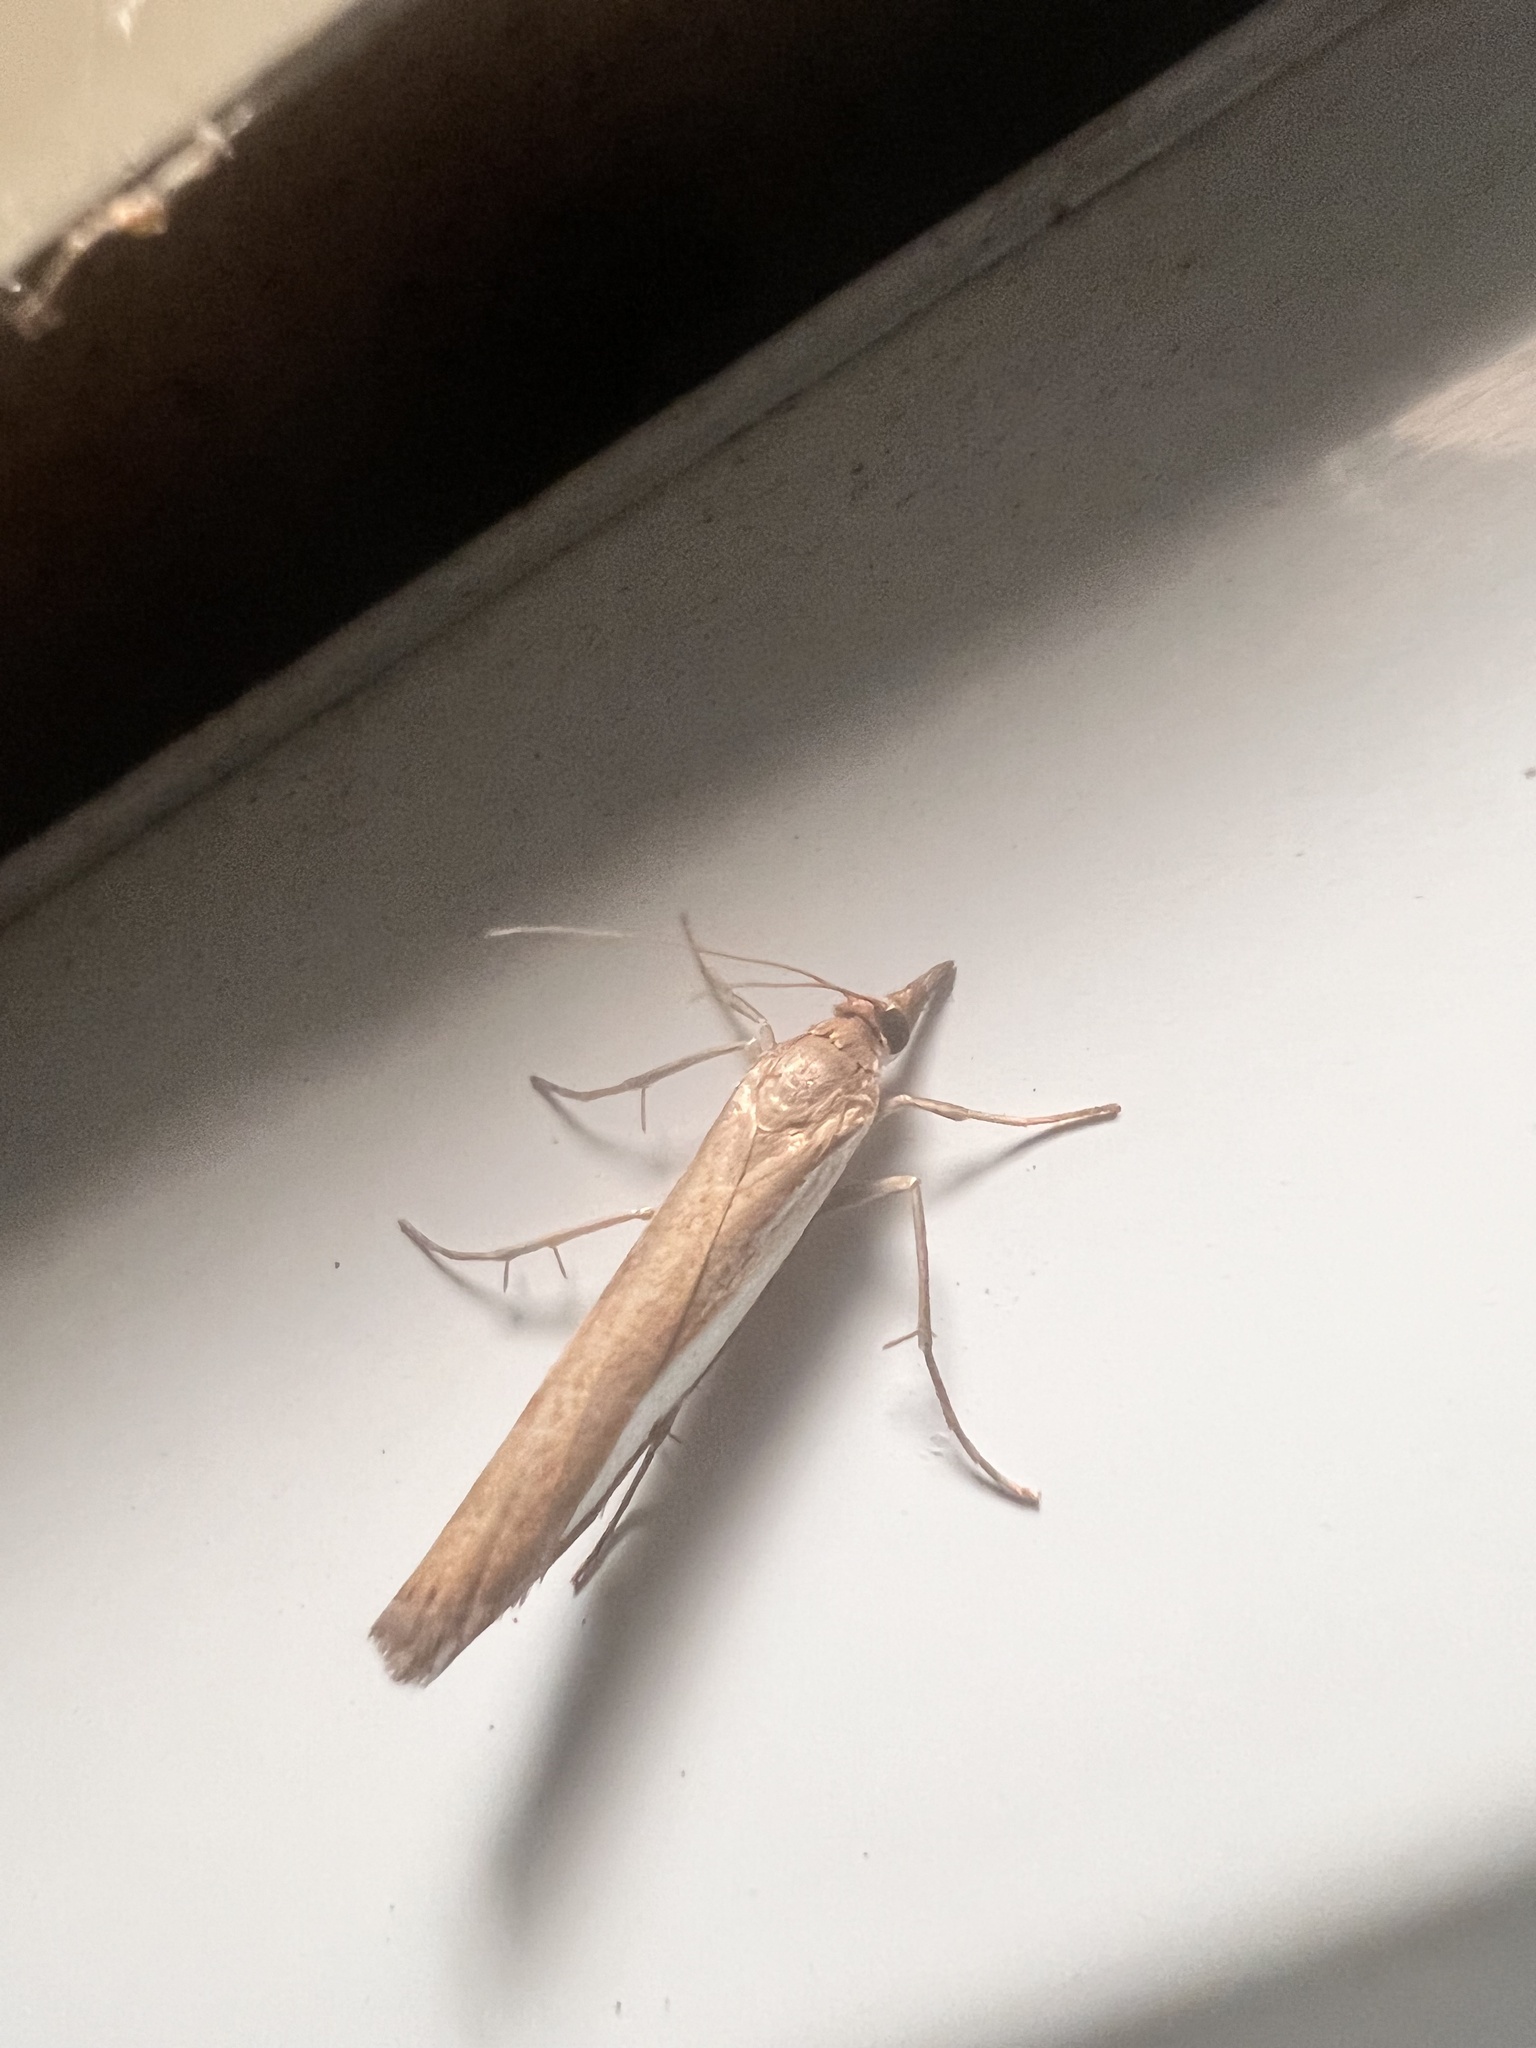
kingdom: Animalia
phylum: Arthropoda
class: Insecta
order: Lepidoptera
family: Crambidae
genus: Orocrambus
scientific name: Orocrambus flexuosellus
